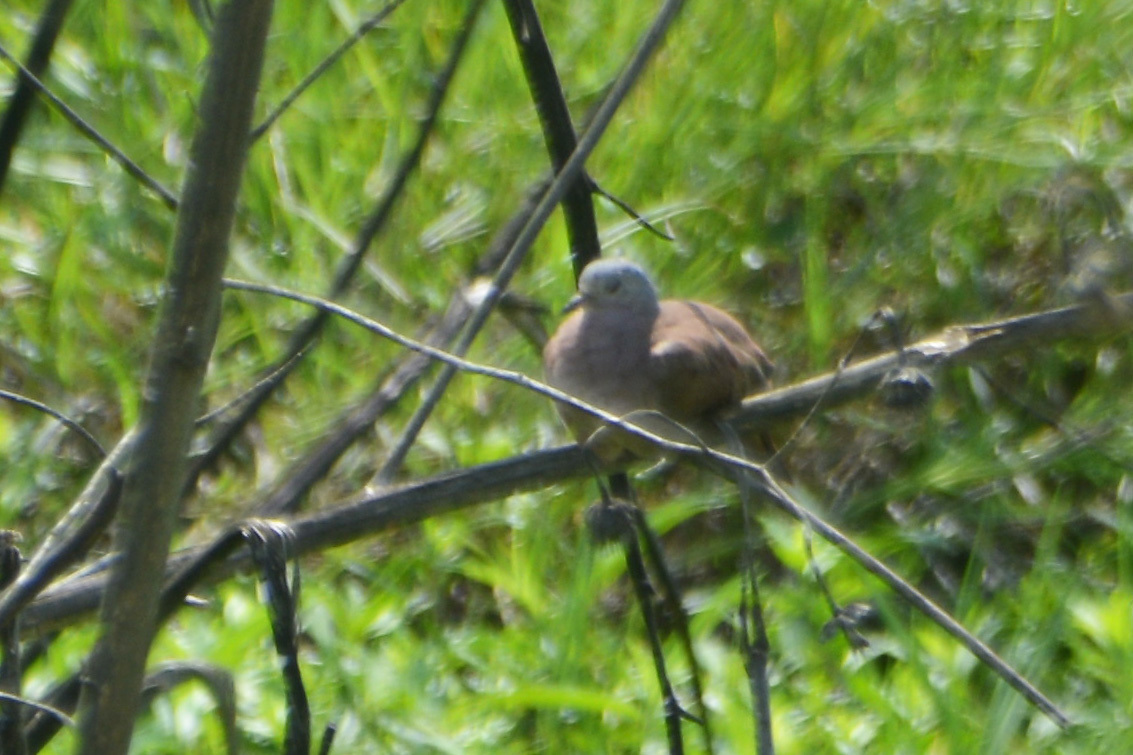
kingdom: Animalia
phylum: Chordata
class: Aves
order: Columbiformes
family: Columbidae
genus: Columbina
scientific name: Columbina talpacoti
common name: Ruddy ground dove
